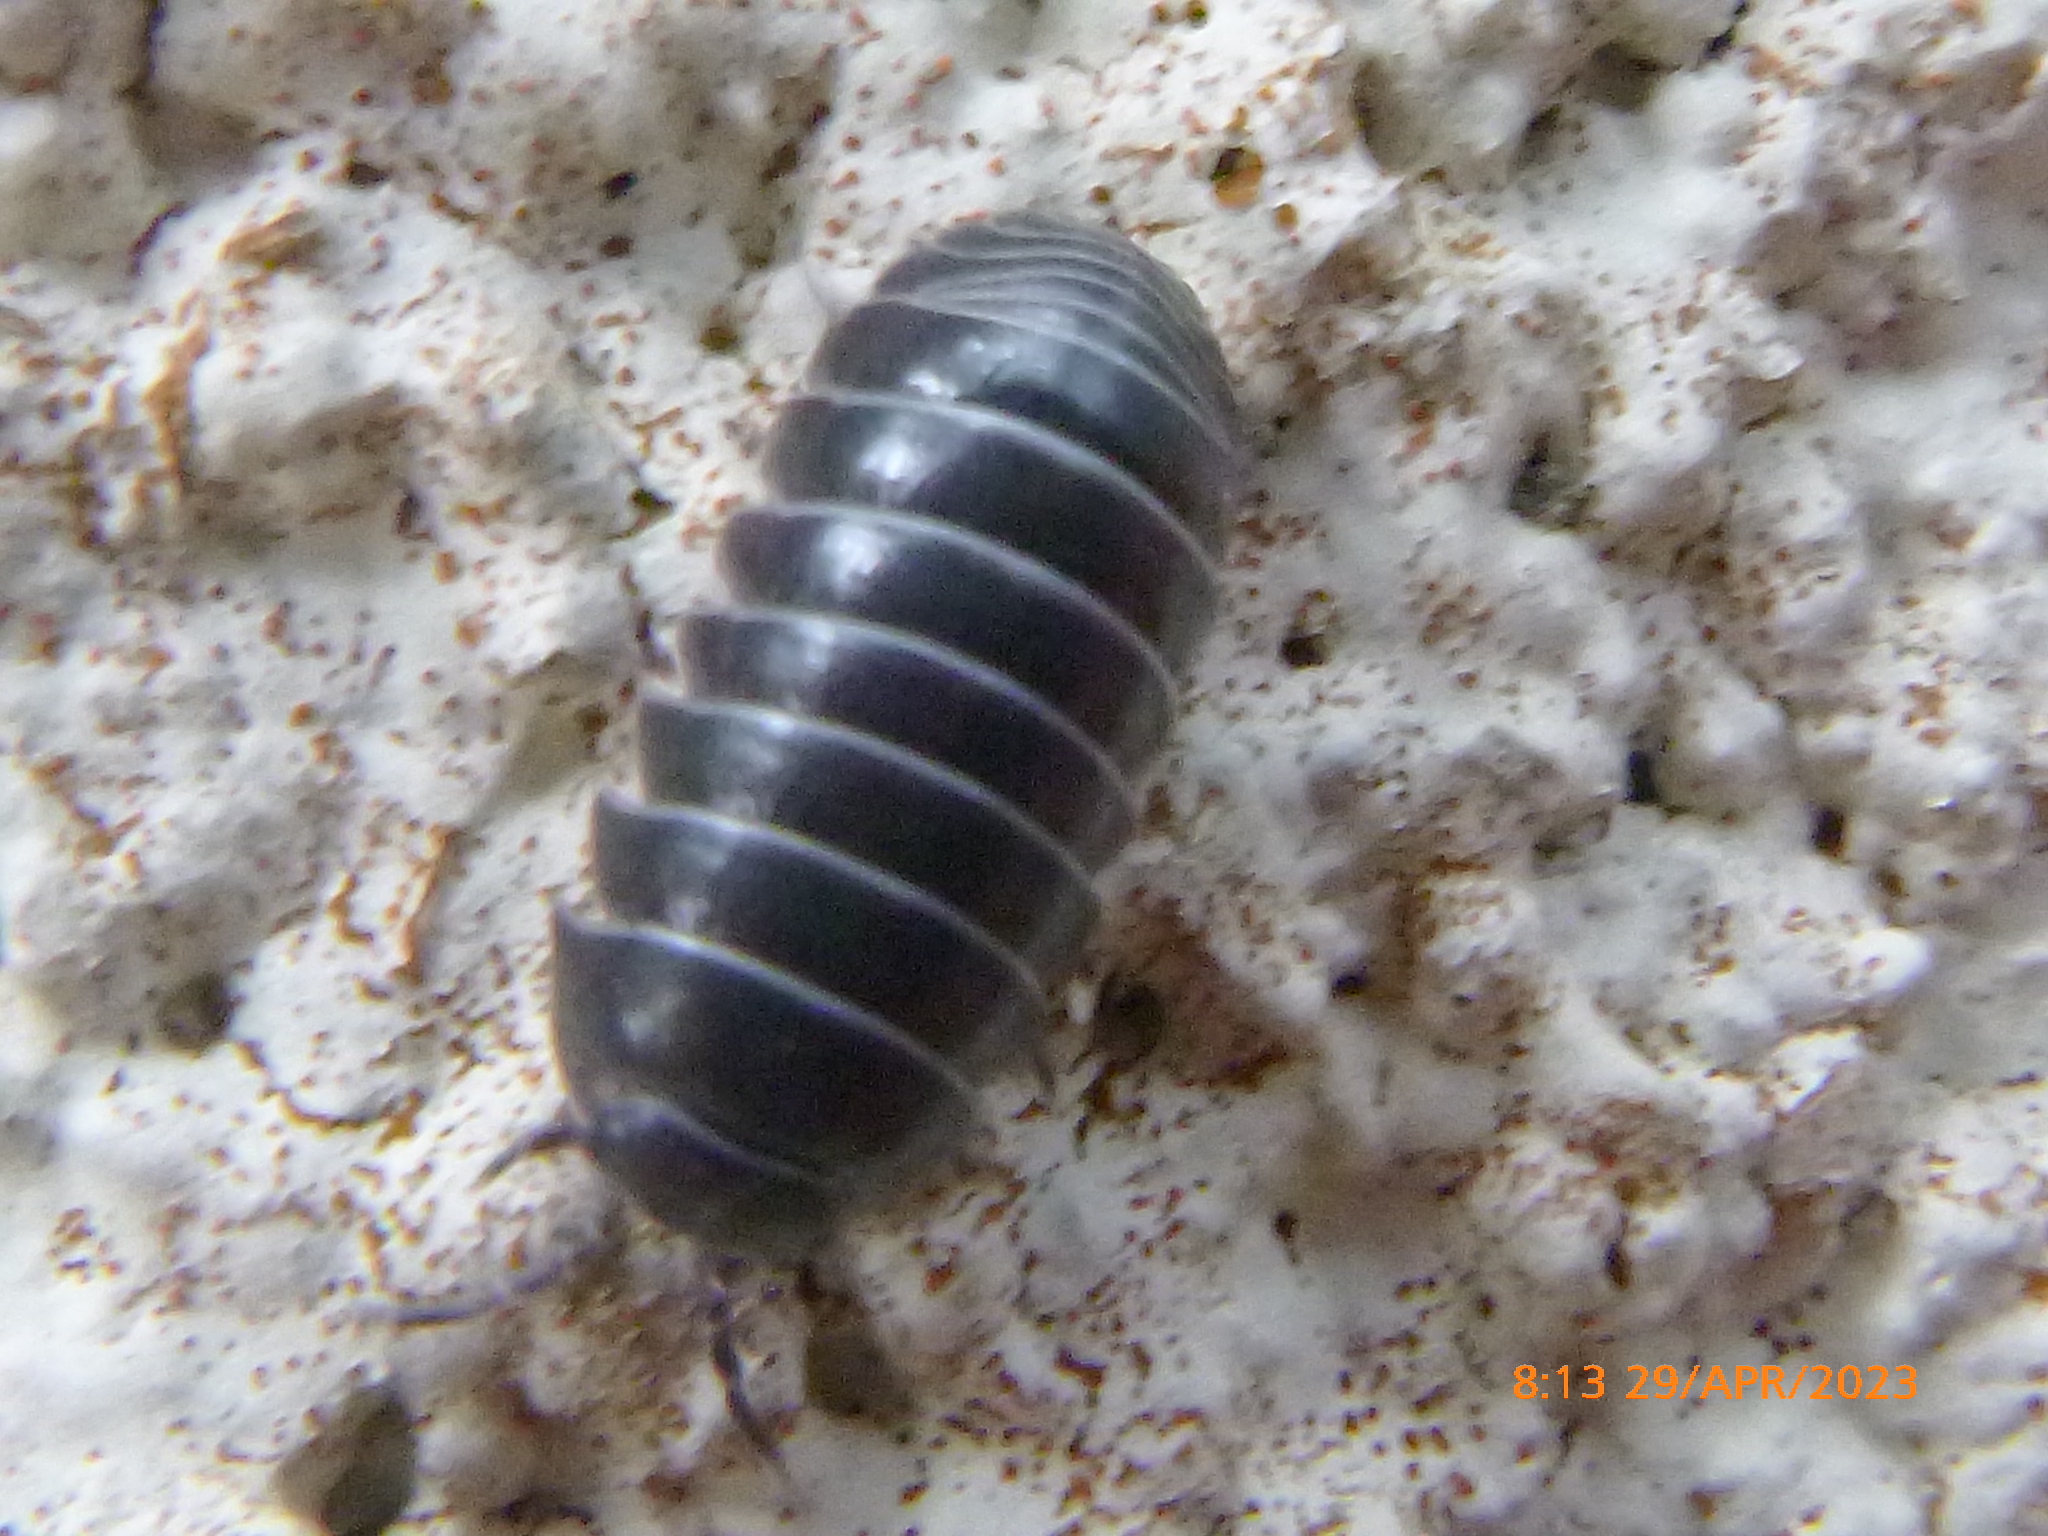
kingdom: Animalia
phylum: Arthropoda
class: Malacostraca
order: Isopoda
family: Armadillidiidae
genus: Armadillidium
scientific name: Armadillidium vulgare
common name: Common pill woodlouse
